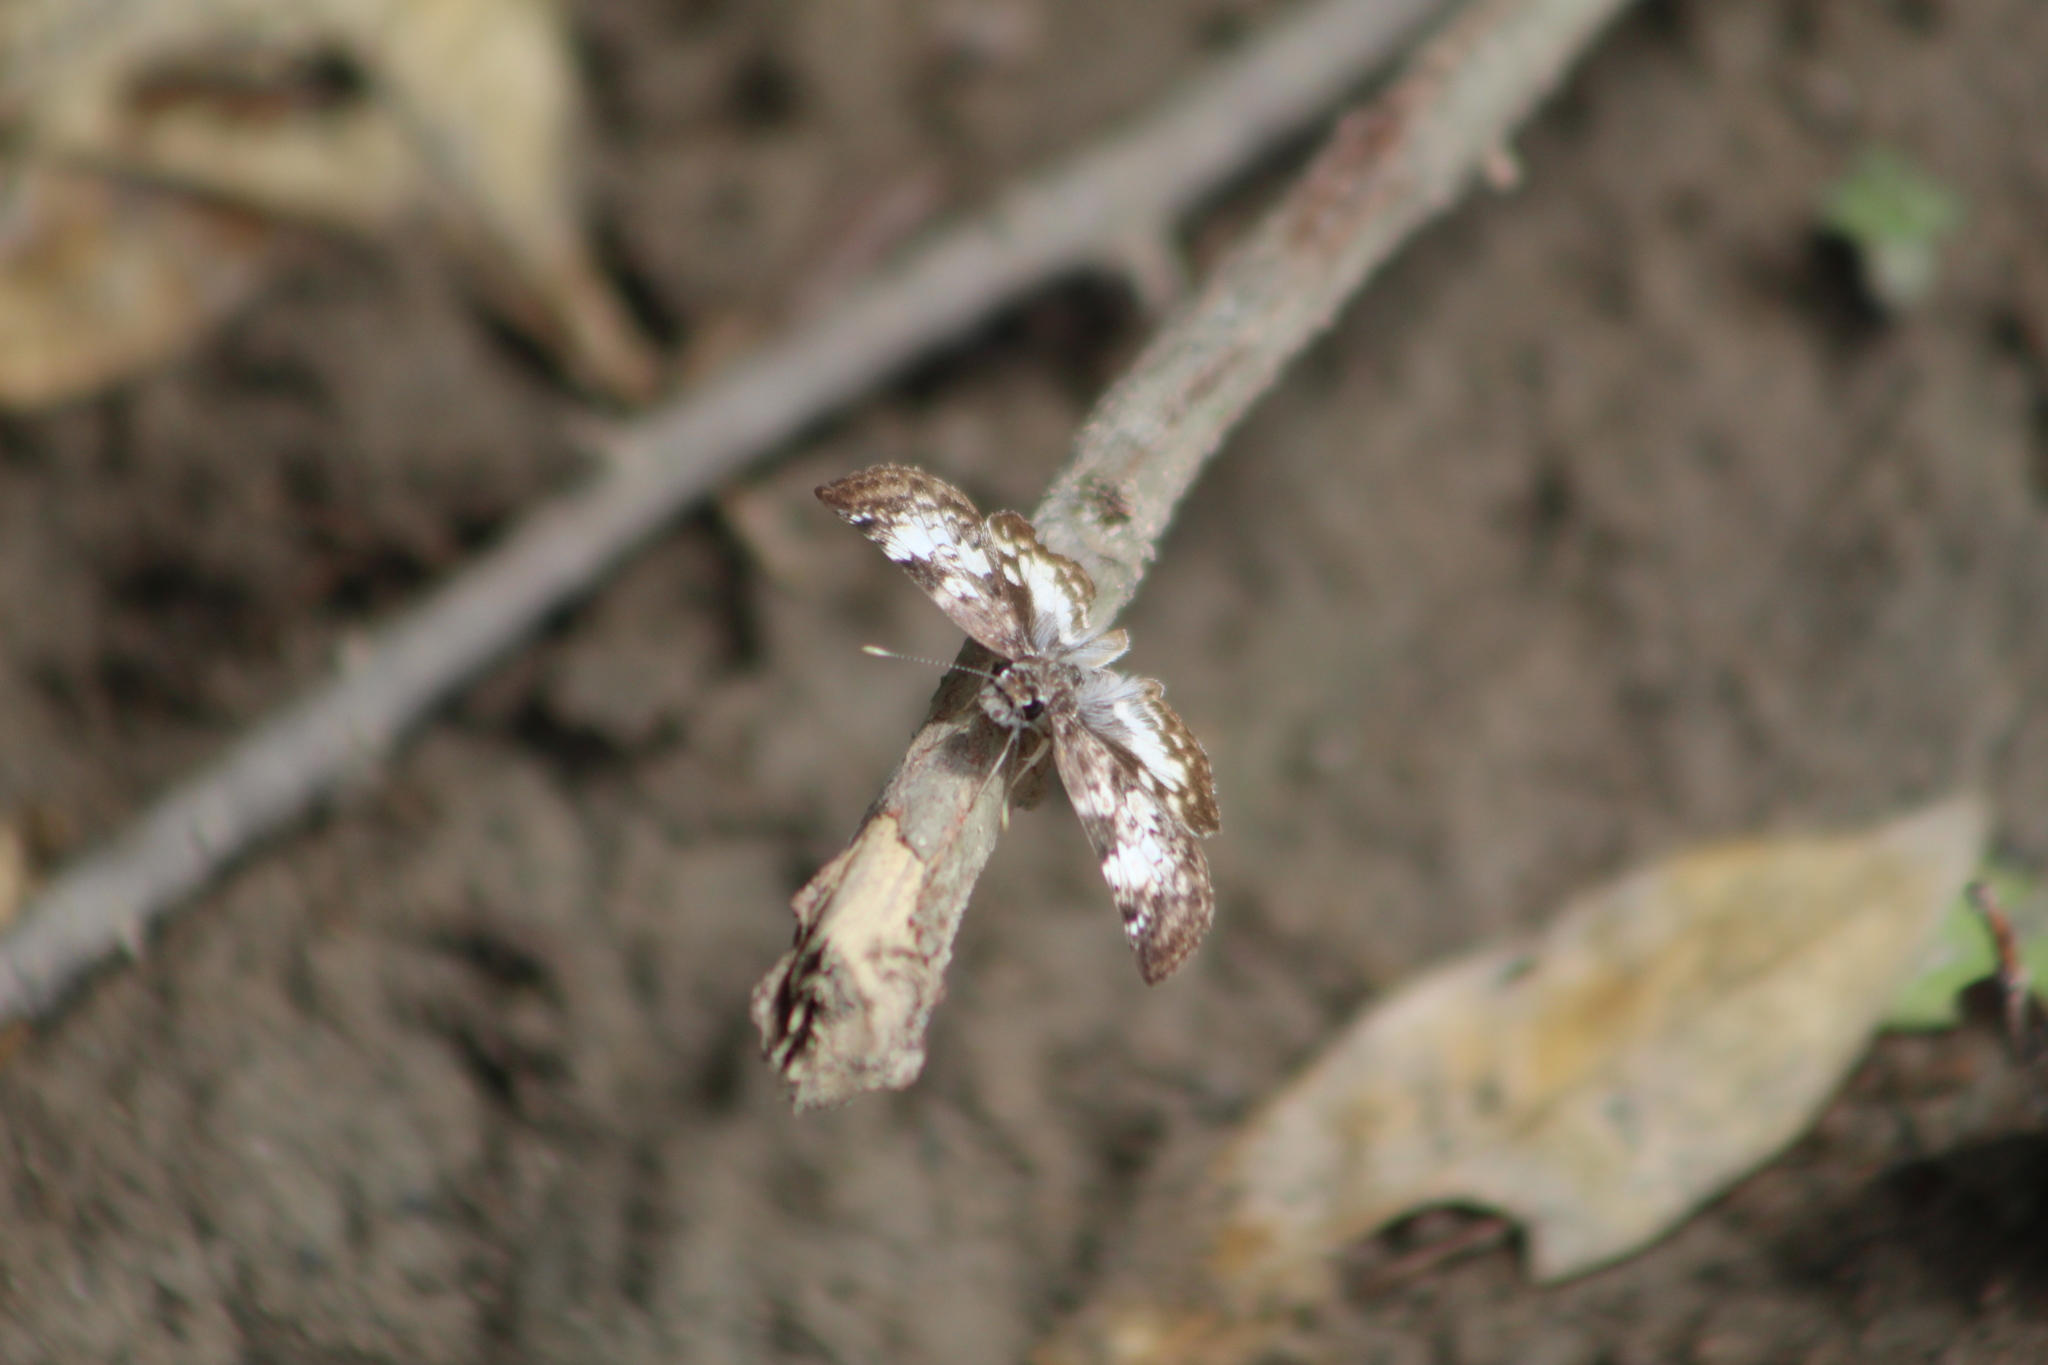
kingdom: Animalia
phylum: Arthropoda
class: Insecta
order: Lepidoptera
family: Hesperiidae
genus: Chiothion
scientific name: Chiothion georgina
